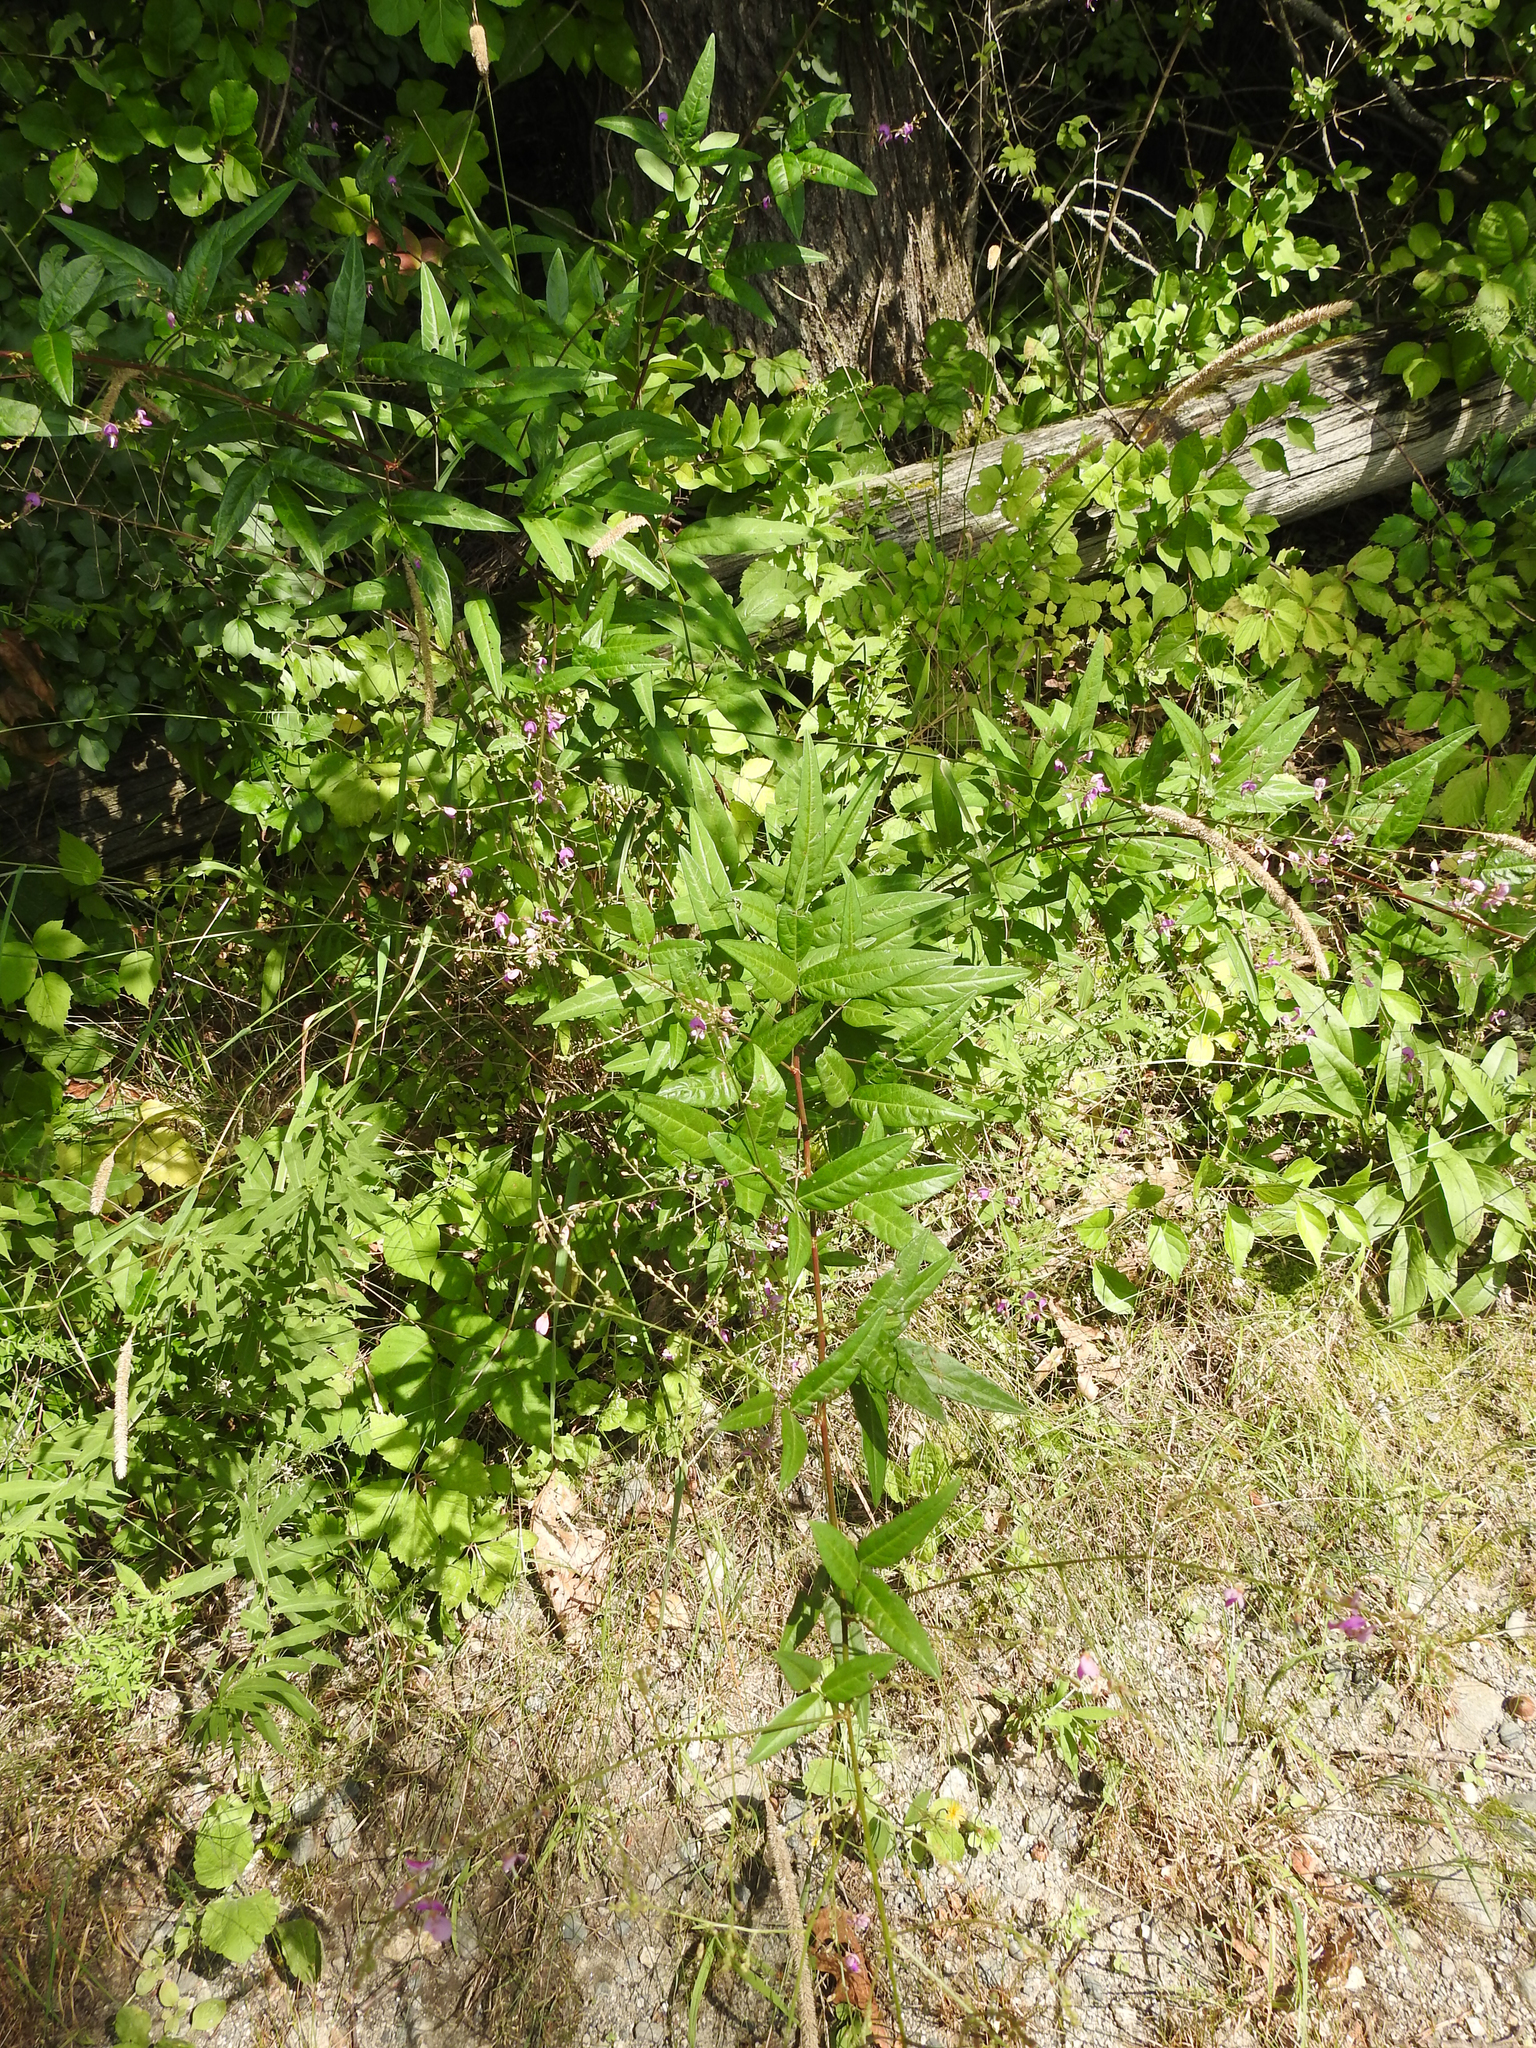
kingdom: Plantae
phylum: Tracheophyta
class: Magnoliopsida
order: Fabales
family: Fabaceae
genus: Desmodium
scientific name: Desmodium paniculatum
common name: Panicled tick-clover
